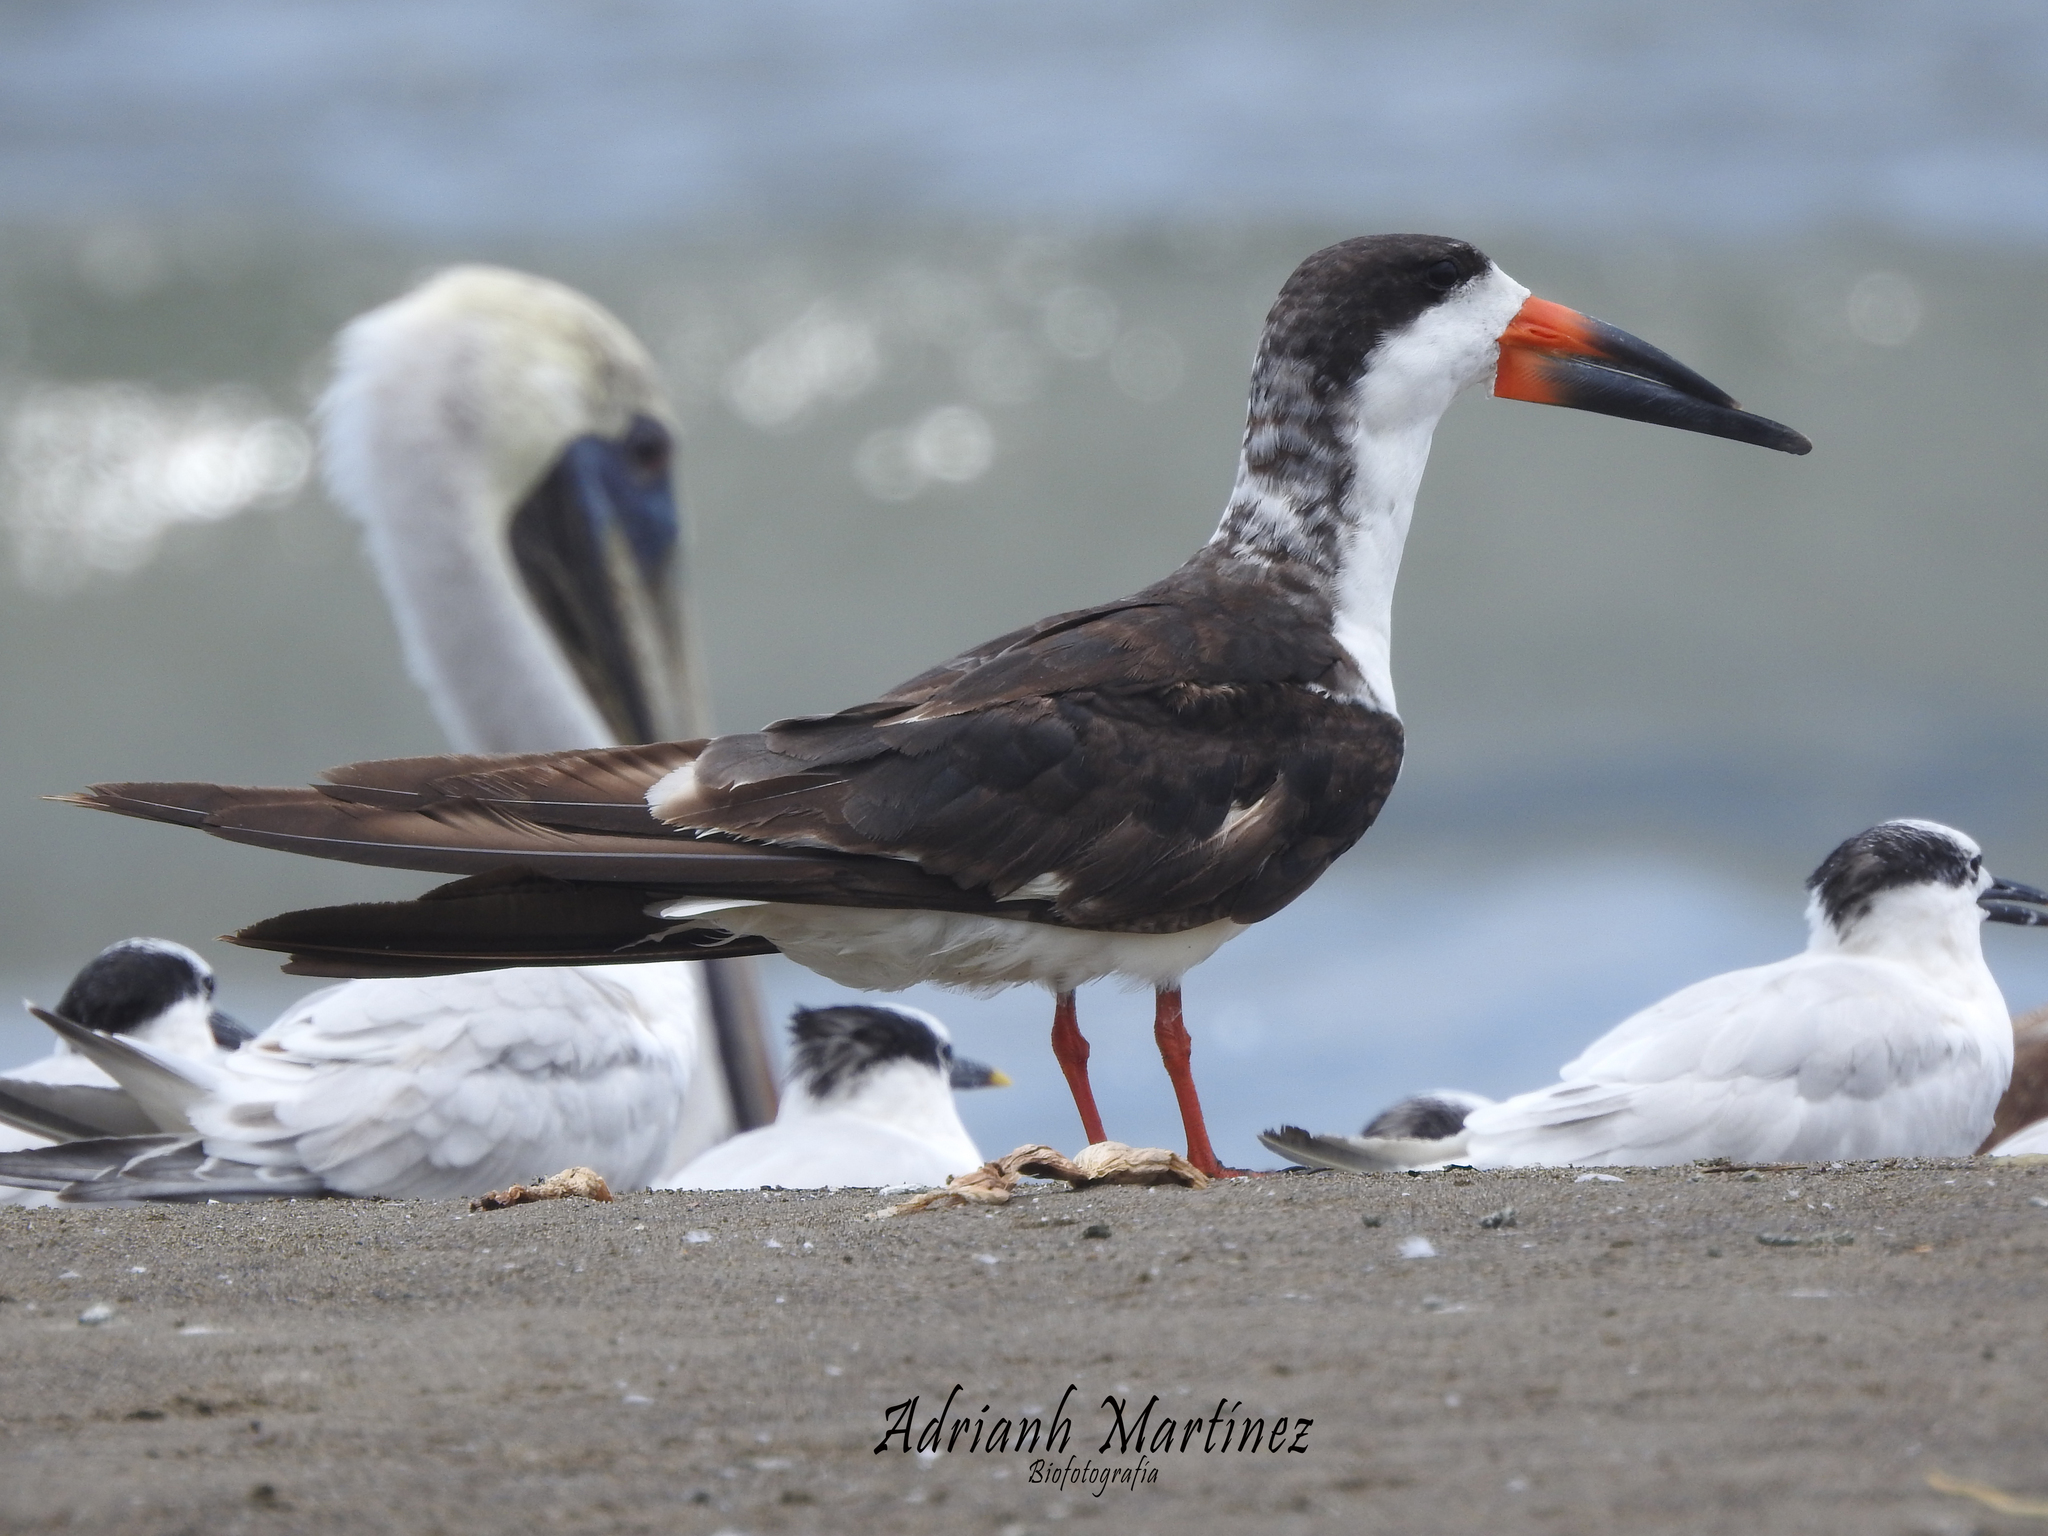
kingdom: Animalia
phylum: Chordata
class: Aves
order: Charadriiformes
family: Laridae
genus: Rynchops
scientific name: Rynchops niger
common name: Black skimmer
